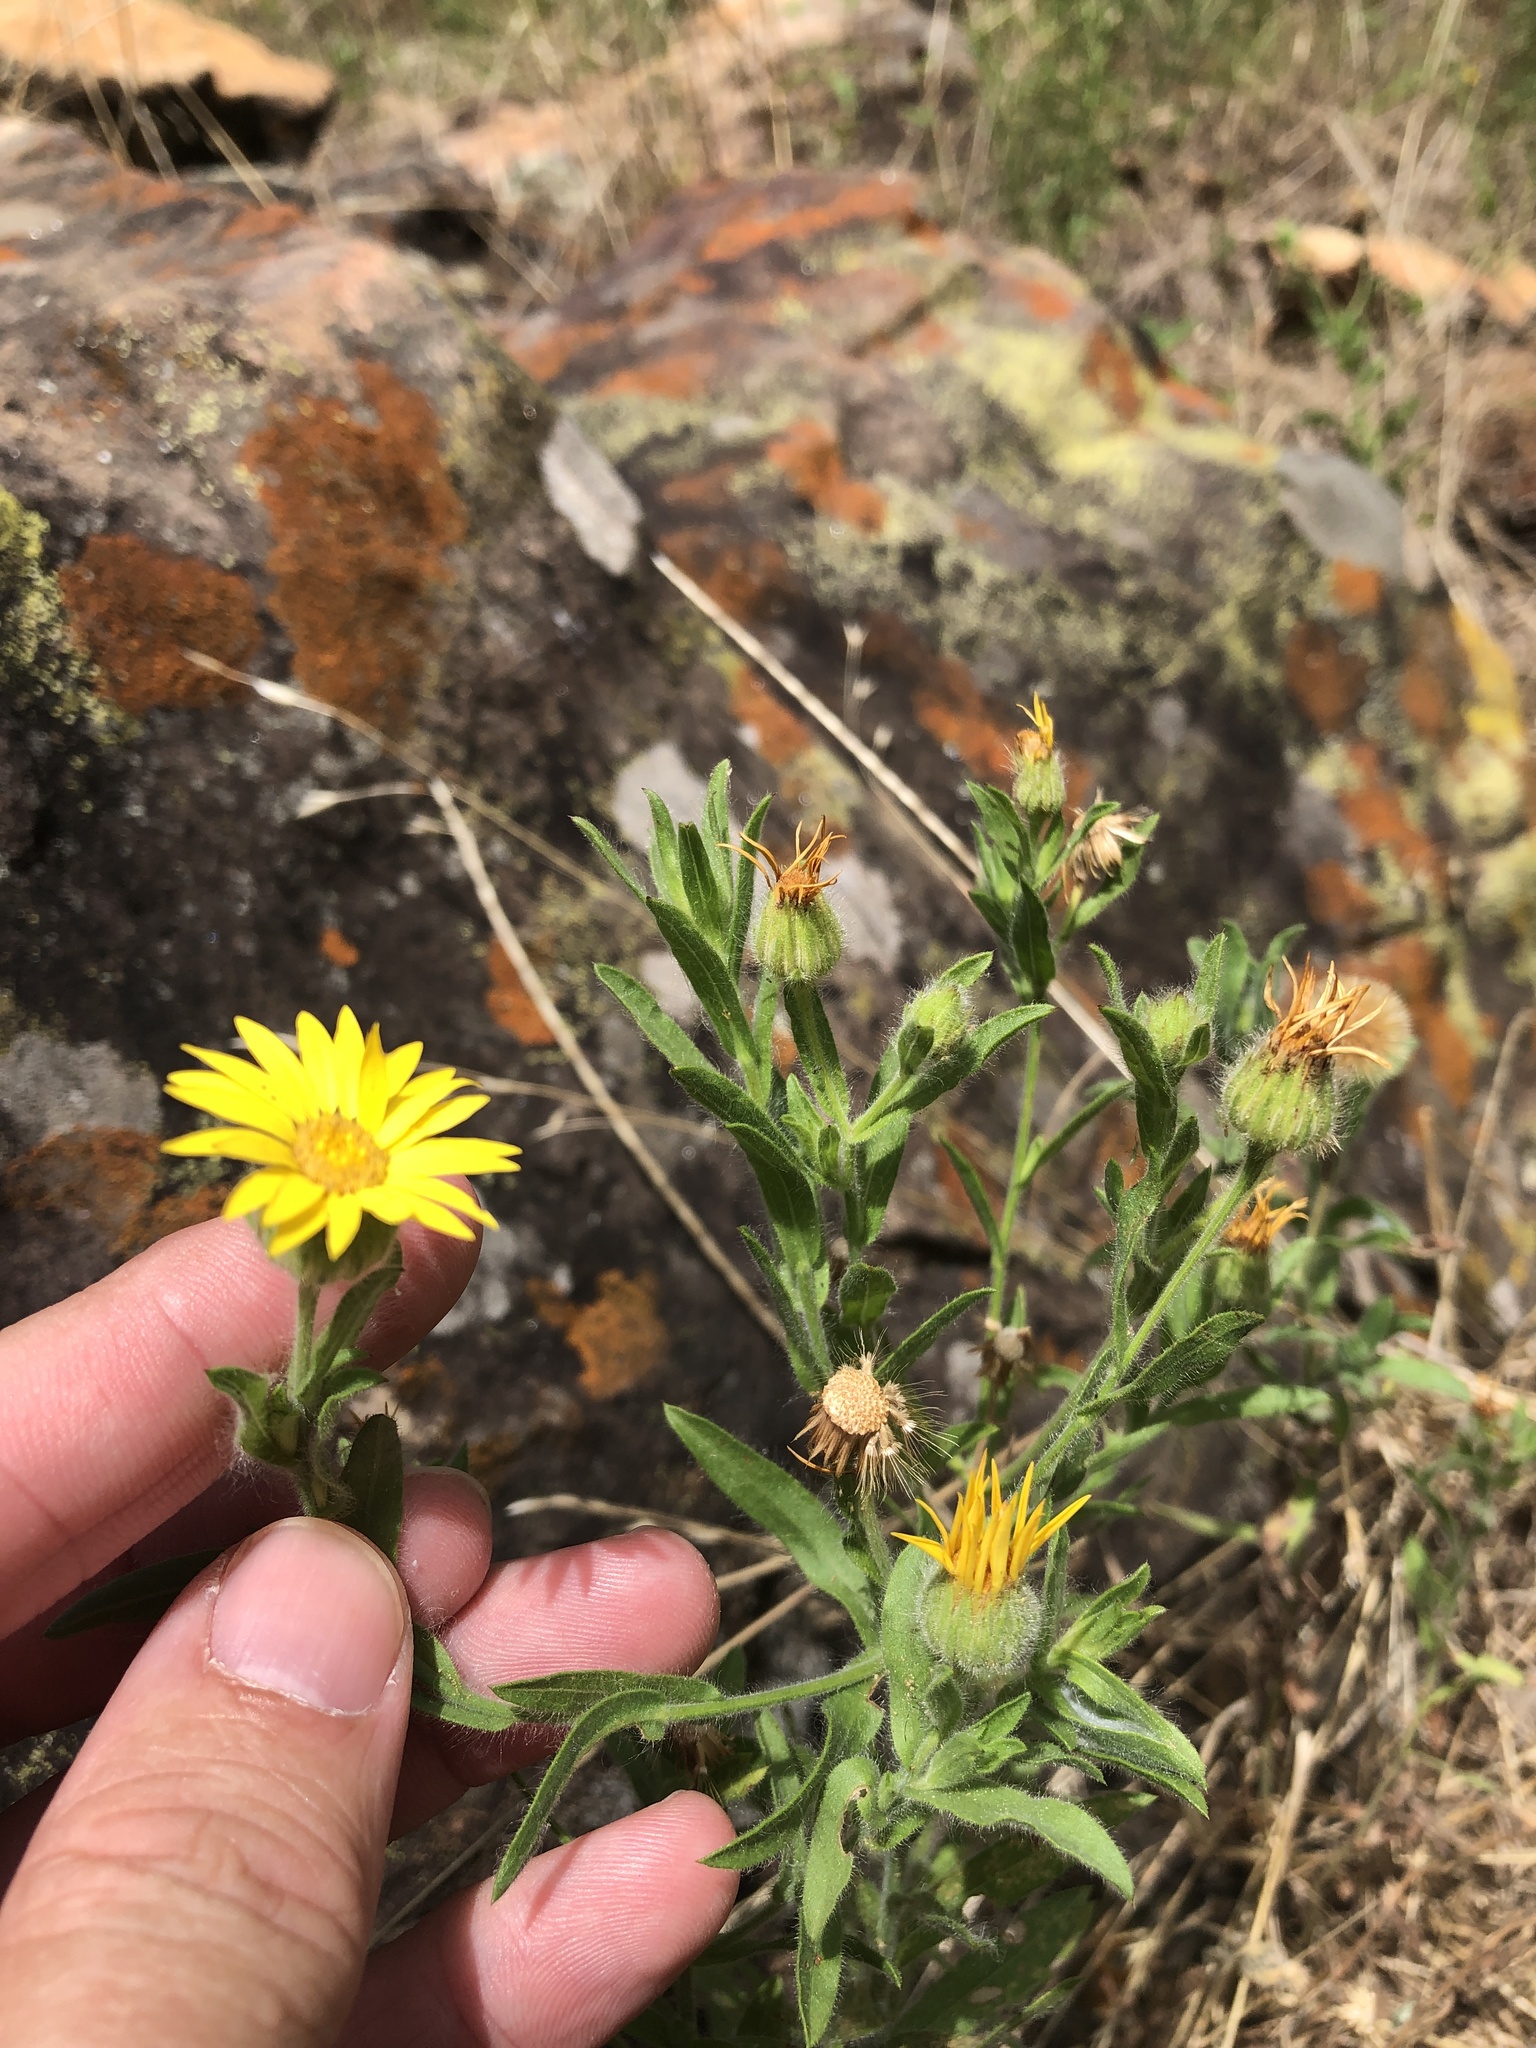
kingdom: Plantae
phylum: Tracheophyta
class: Magnoliopsida
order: Asterales
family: Asteraceae
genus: Bradburia
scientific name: Bradburia pilosa
